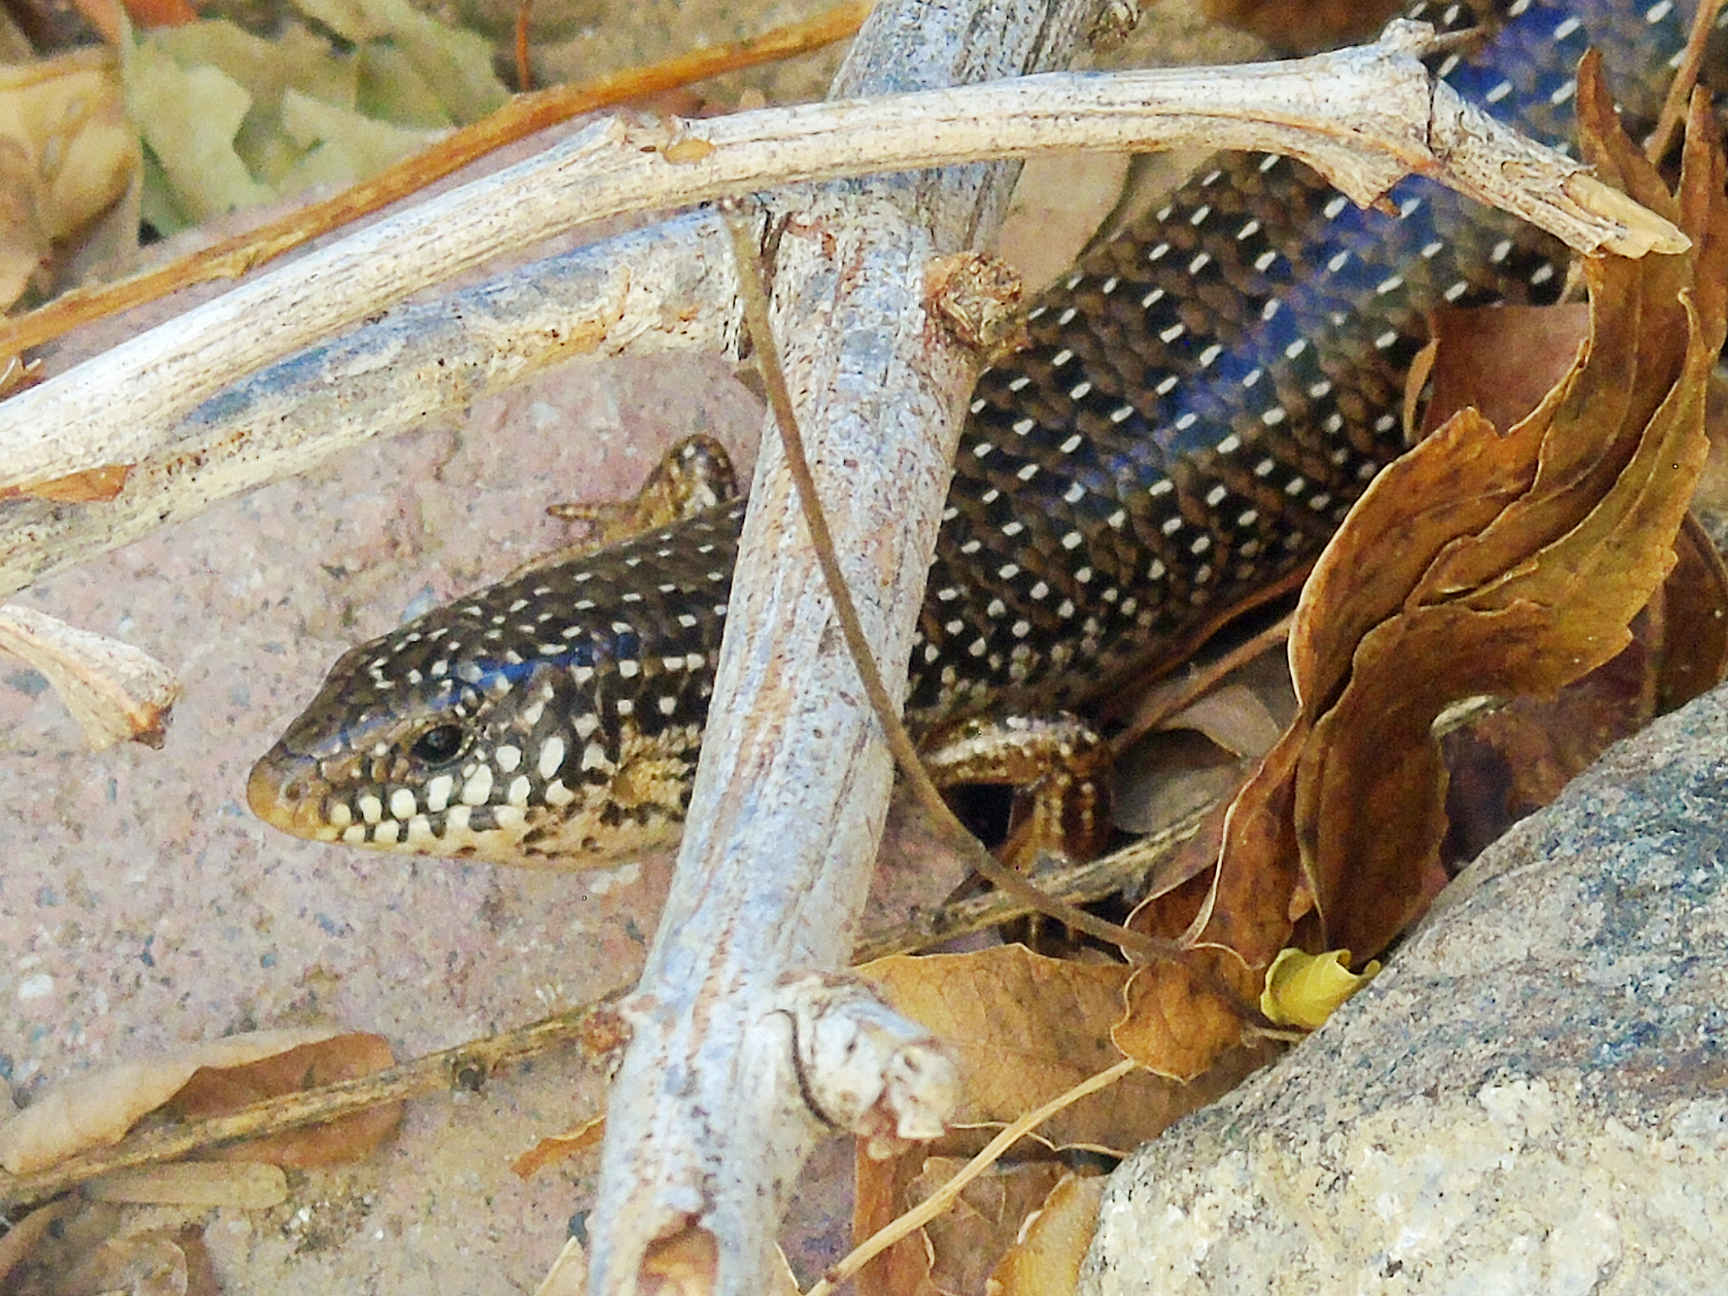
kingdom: Animalia
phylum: Chordata
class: Squamata
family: Scincidae
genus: Chalcides
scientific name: Chalcides ocellatus
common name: Ocellated skink
